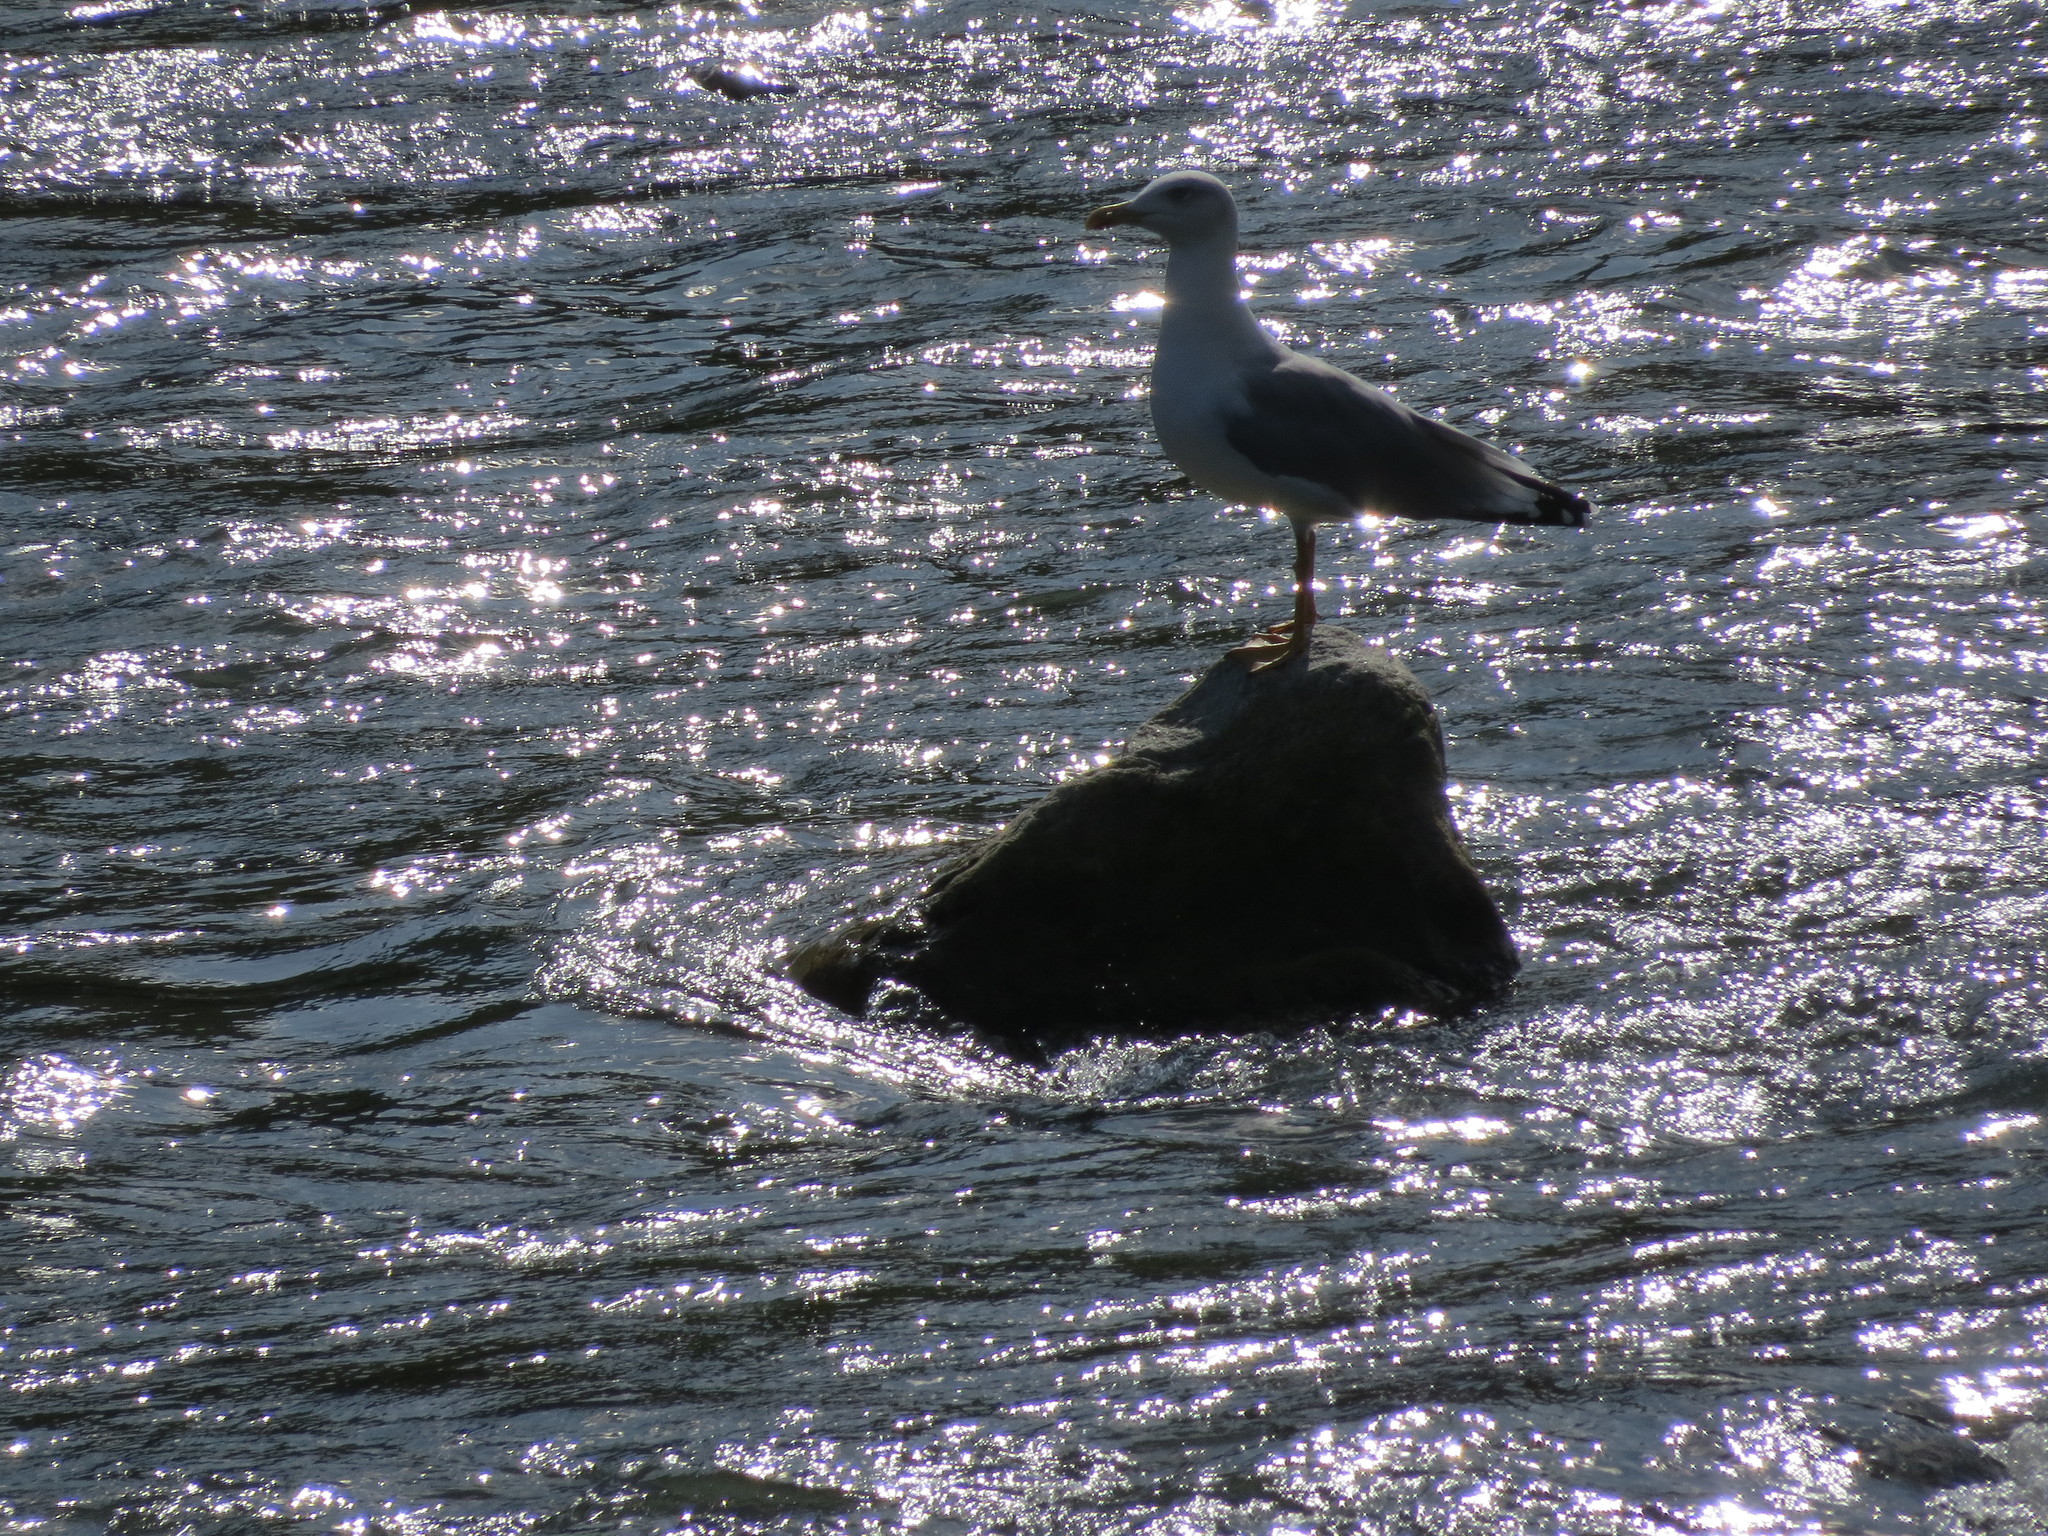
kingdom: Animalia
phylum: Chordata
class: Aves
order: Charadriiformes
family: Laridae
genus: Larus
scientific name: Larus michahellis
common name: Yellow-legged gull
